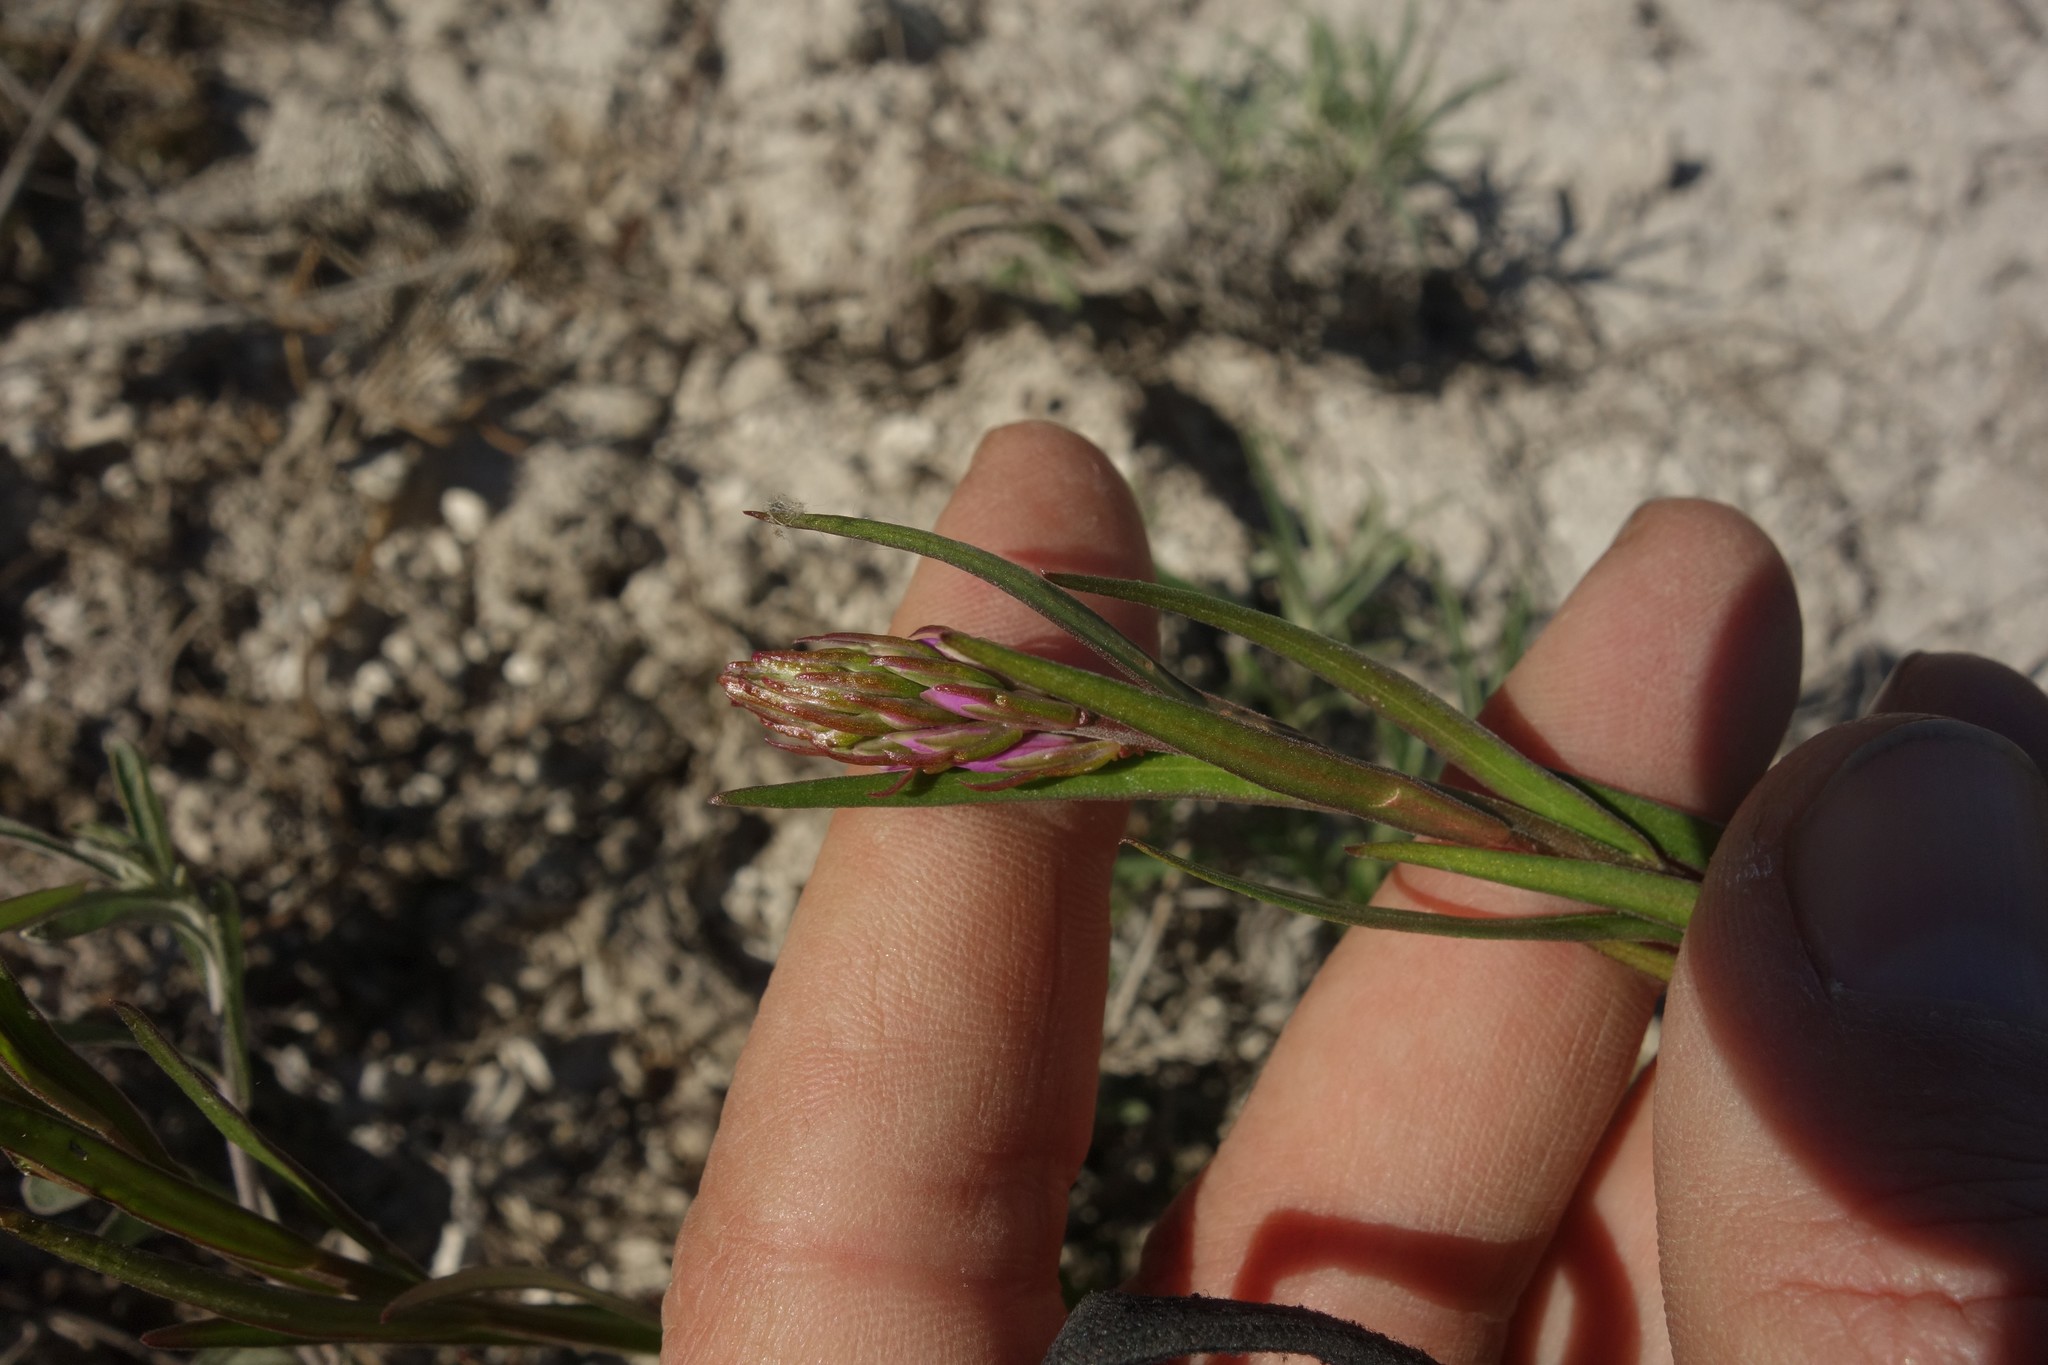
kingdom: Plantae
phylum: Tracheophyta
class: Magnoliopsida
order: Fabales
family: Polygalaceae
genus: Polygala
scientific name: Polygala nicaeensis
